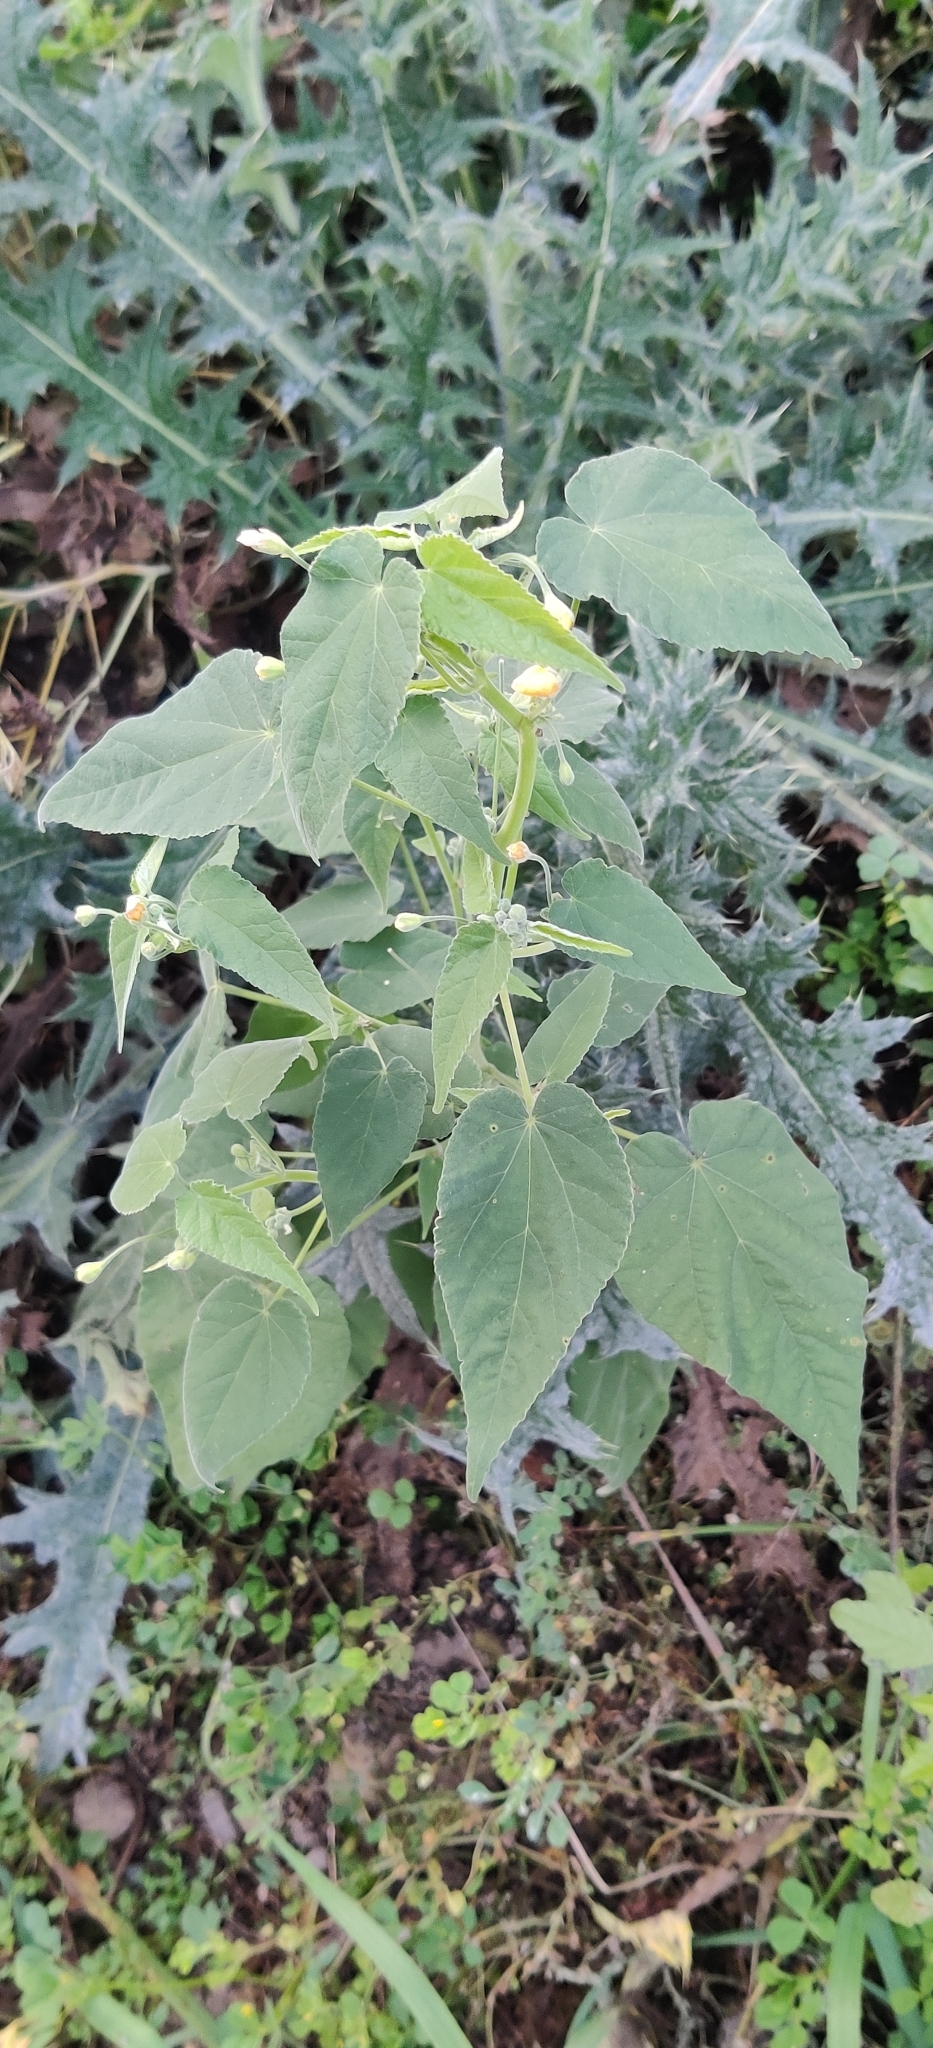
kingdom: Plantae
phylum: Tracheophyta
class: Magnoliopsida
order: Malvales
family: Malvaceae
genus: Abutilon
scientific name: Abutilon oxycarpum
